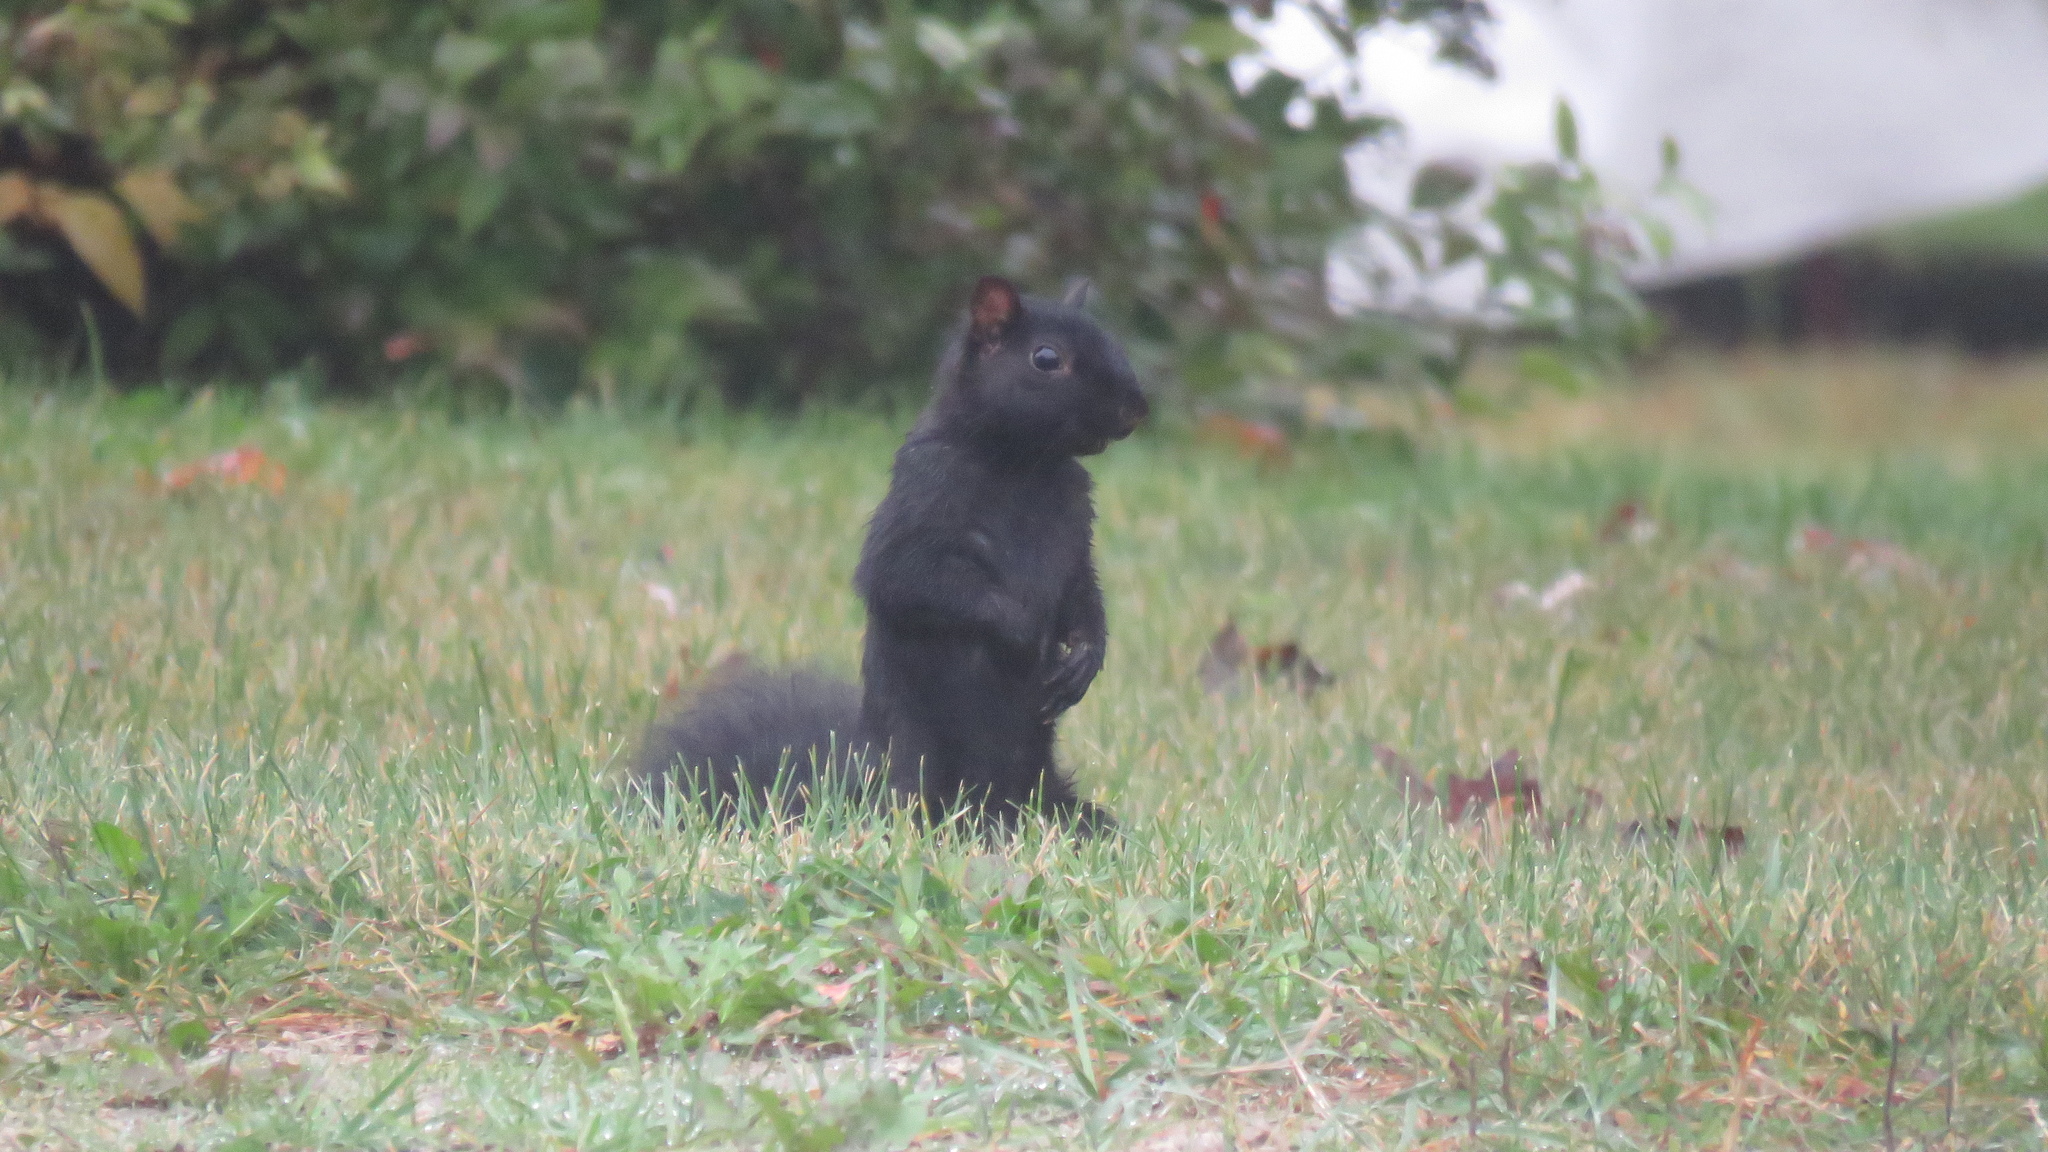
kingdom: Animalia
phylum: Chordata
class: Mammalia
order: Rodentia
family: Sciuridae
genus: Sciurus
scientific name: Sciurus carolinensis
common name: Eastern gray squirrel
